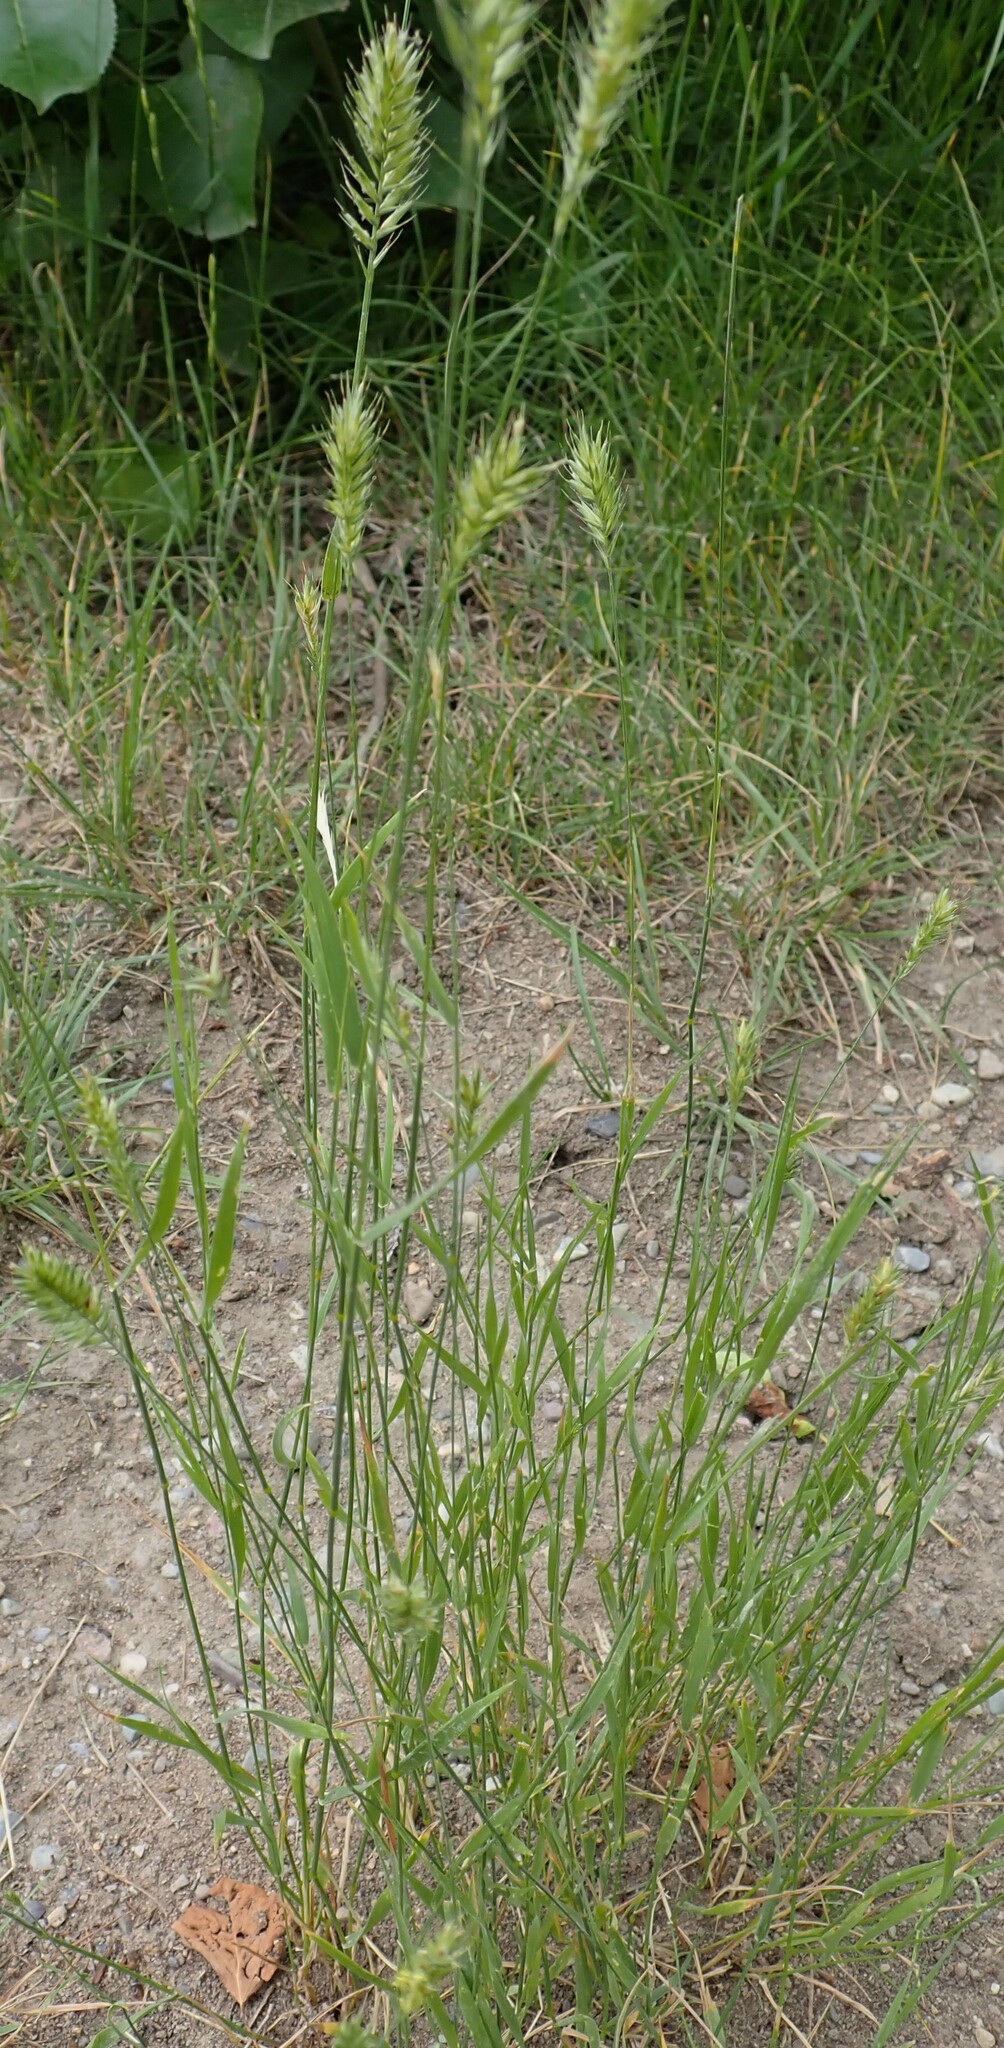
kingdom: Plantae
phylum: Tracheophyta
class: Liliopsida
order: Poales
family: Poaceae
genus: Agropyron
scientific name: Agropyron cristatum
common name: Crested wheatgrass
